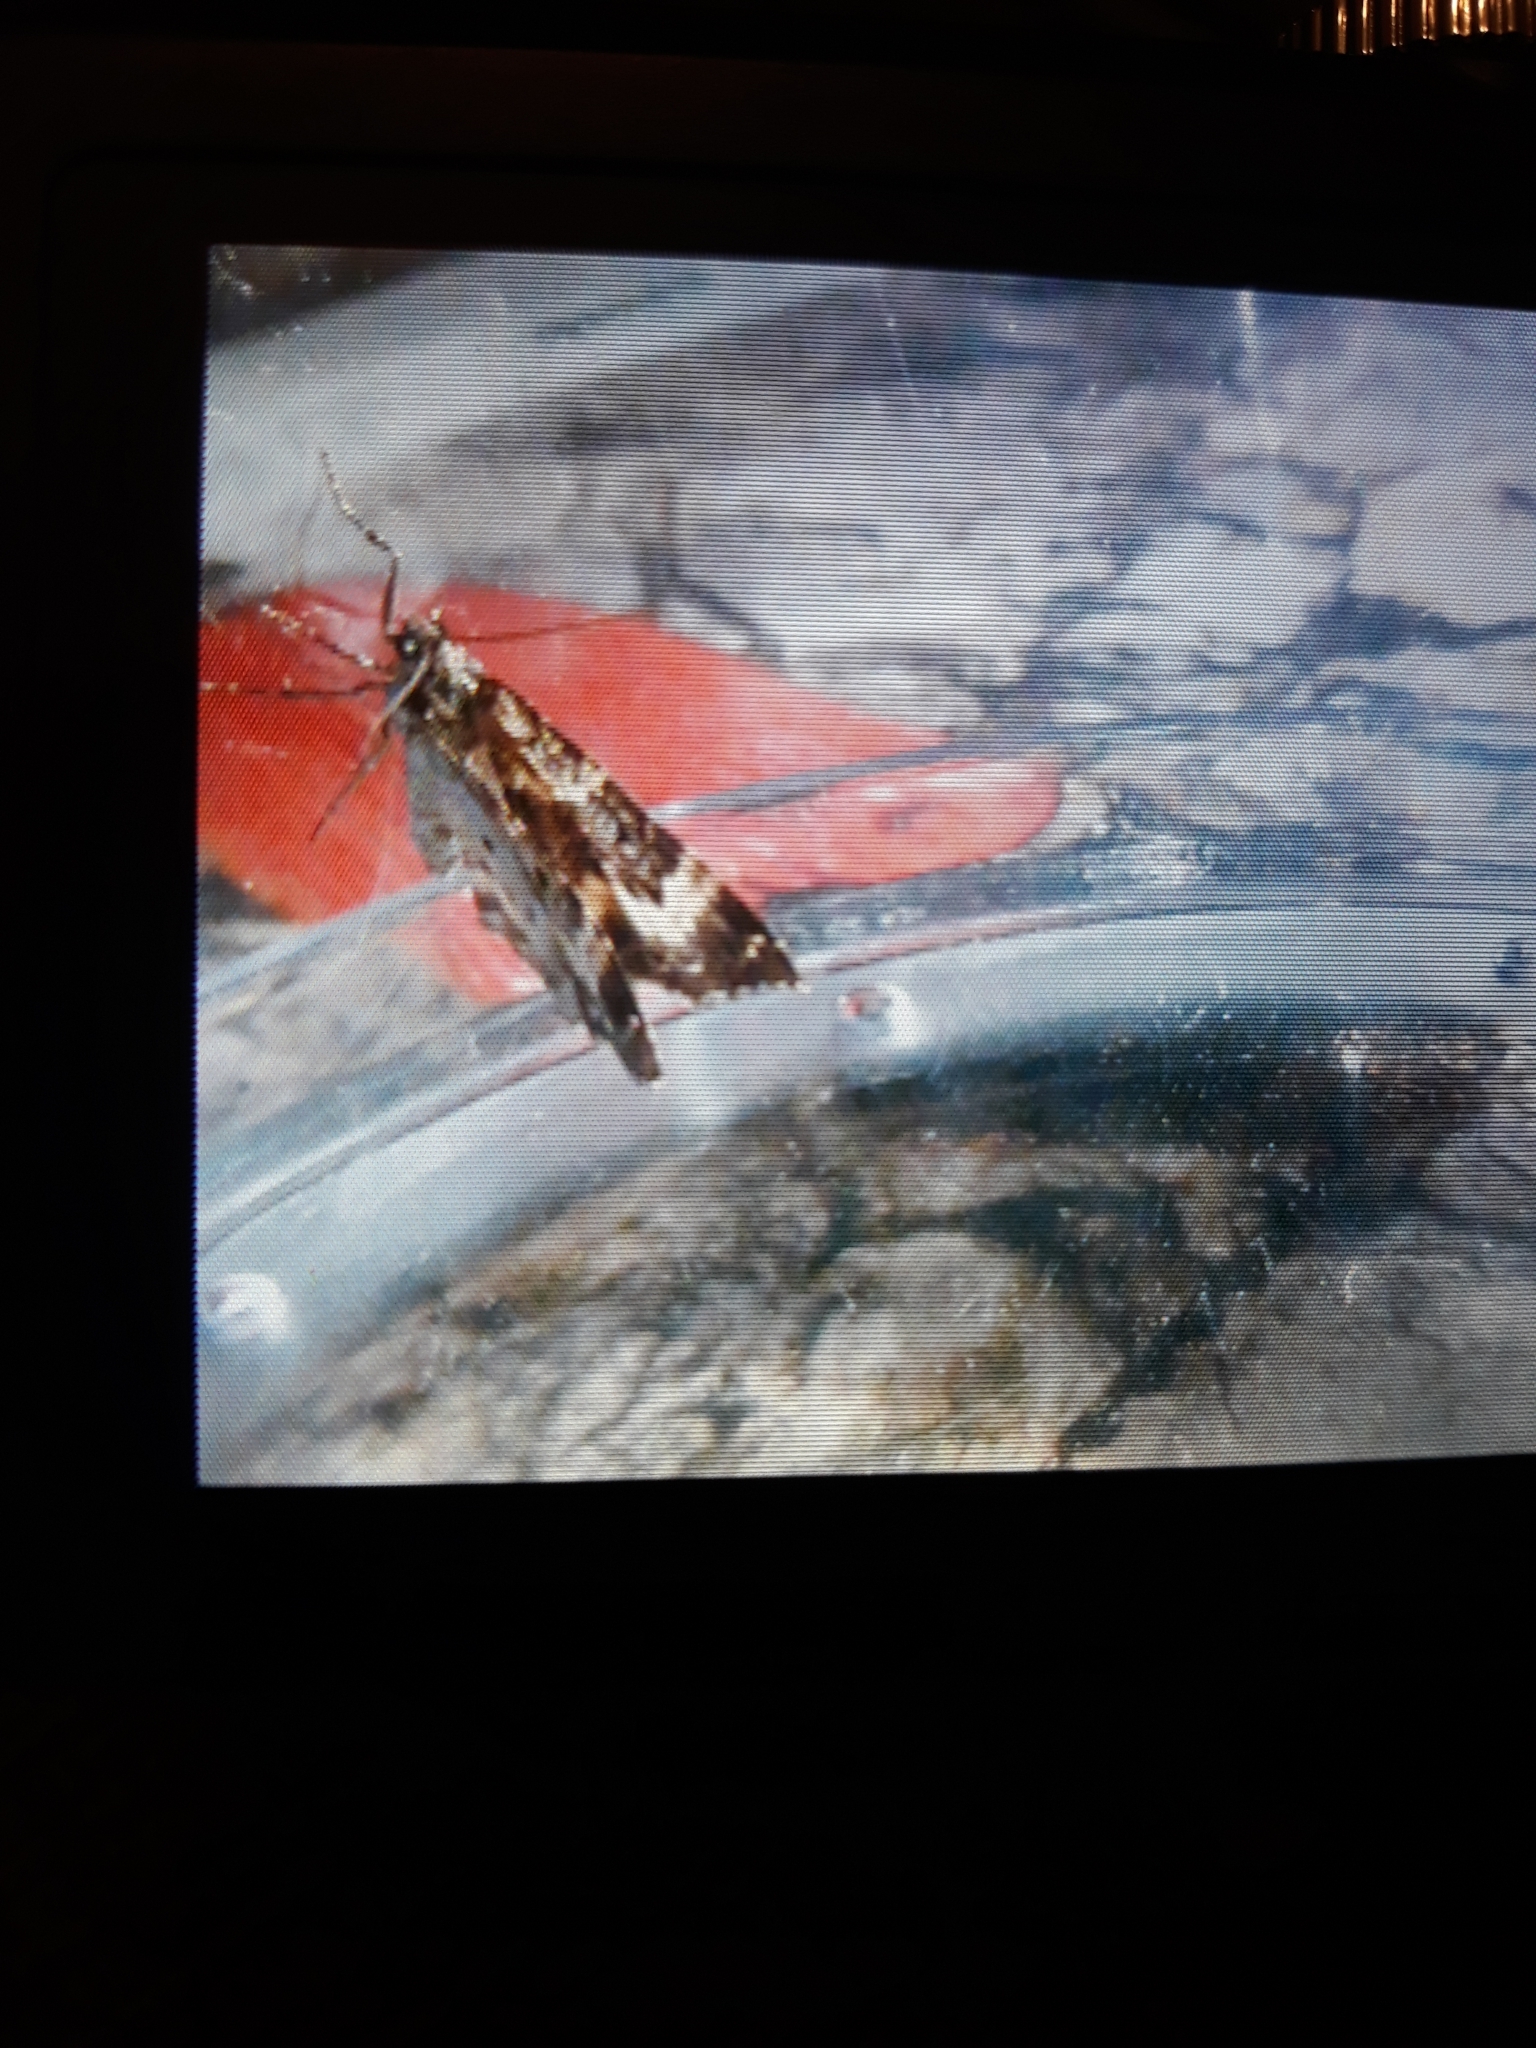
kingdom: Animalia
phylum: Arthropoda
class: Insecta
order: Lepidoptera
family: Geometridae
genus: Epirrhoe
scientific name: Epirrhoe alternata
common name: Common carpet
